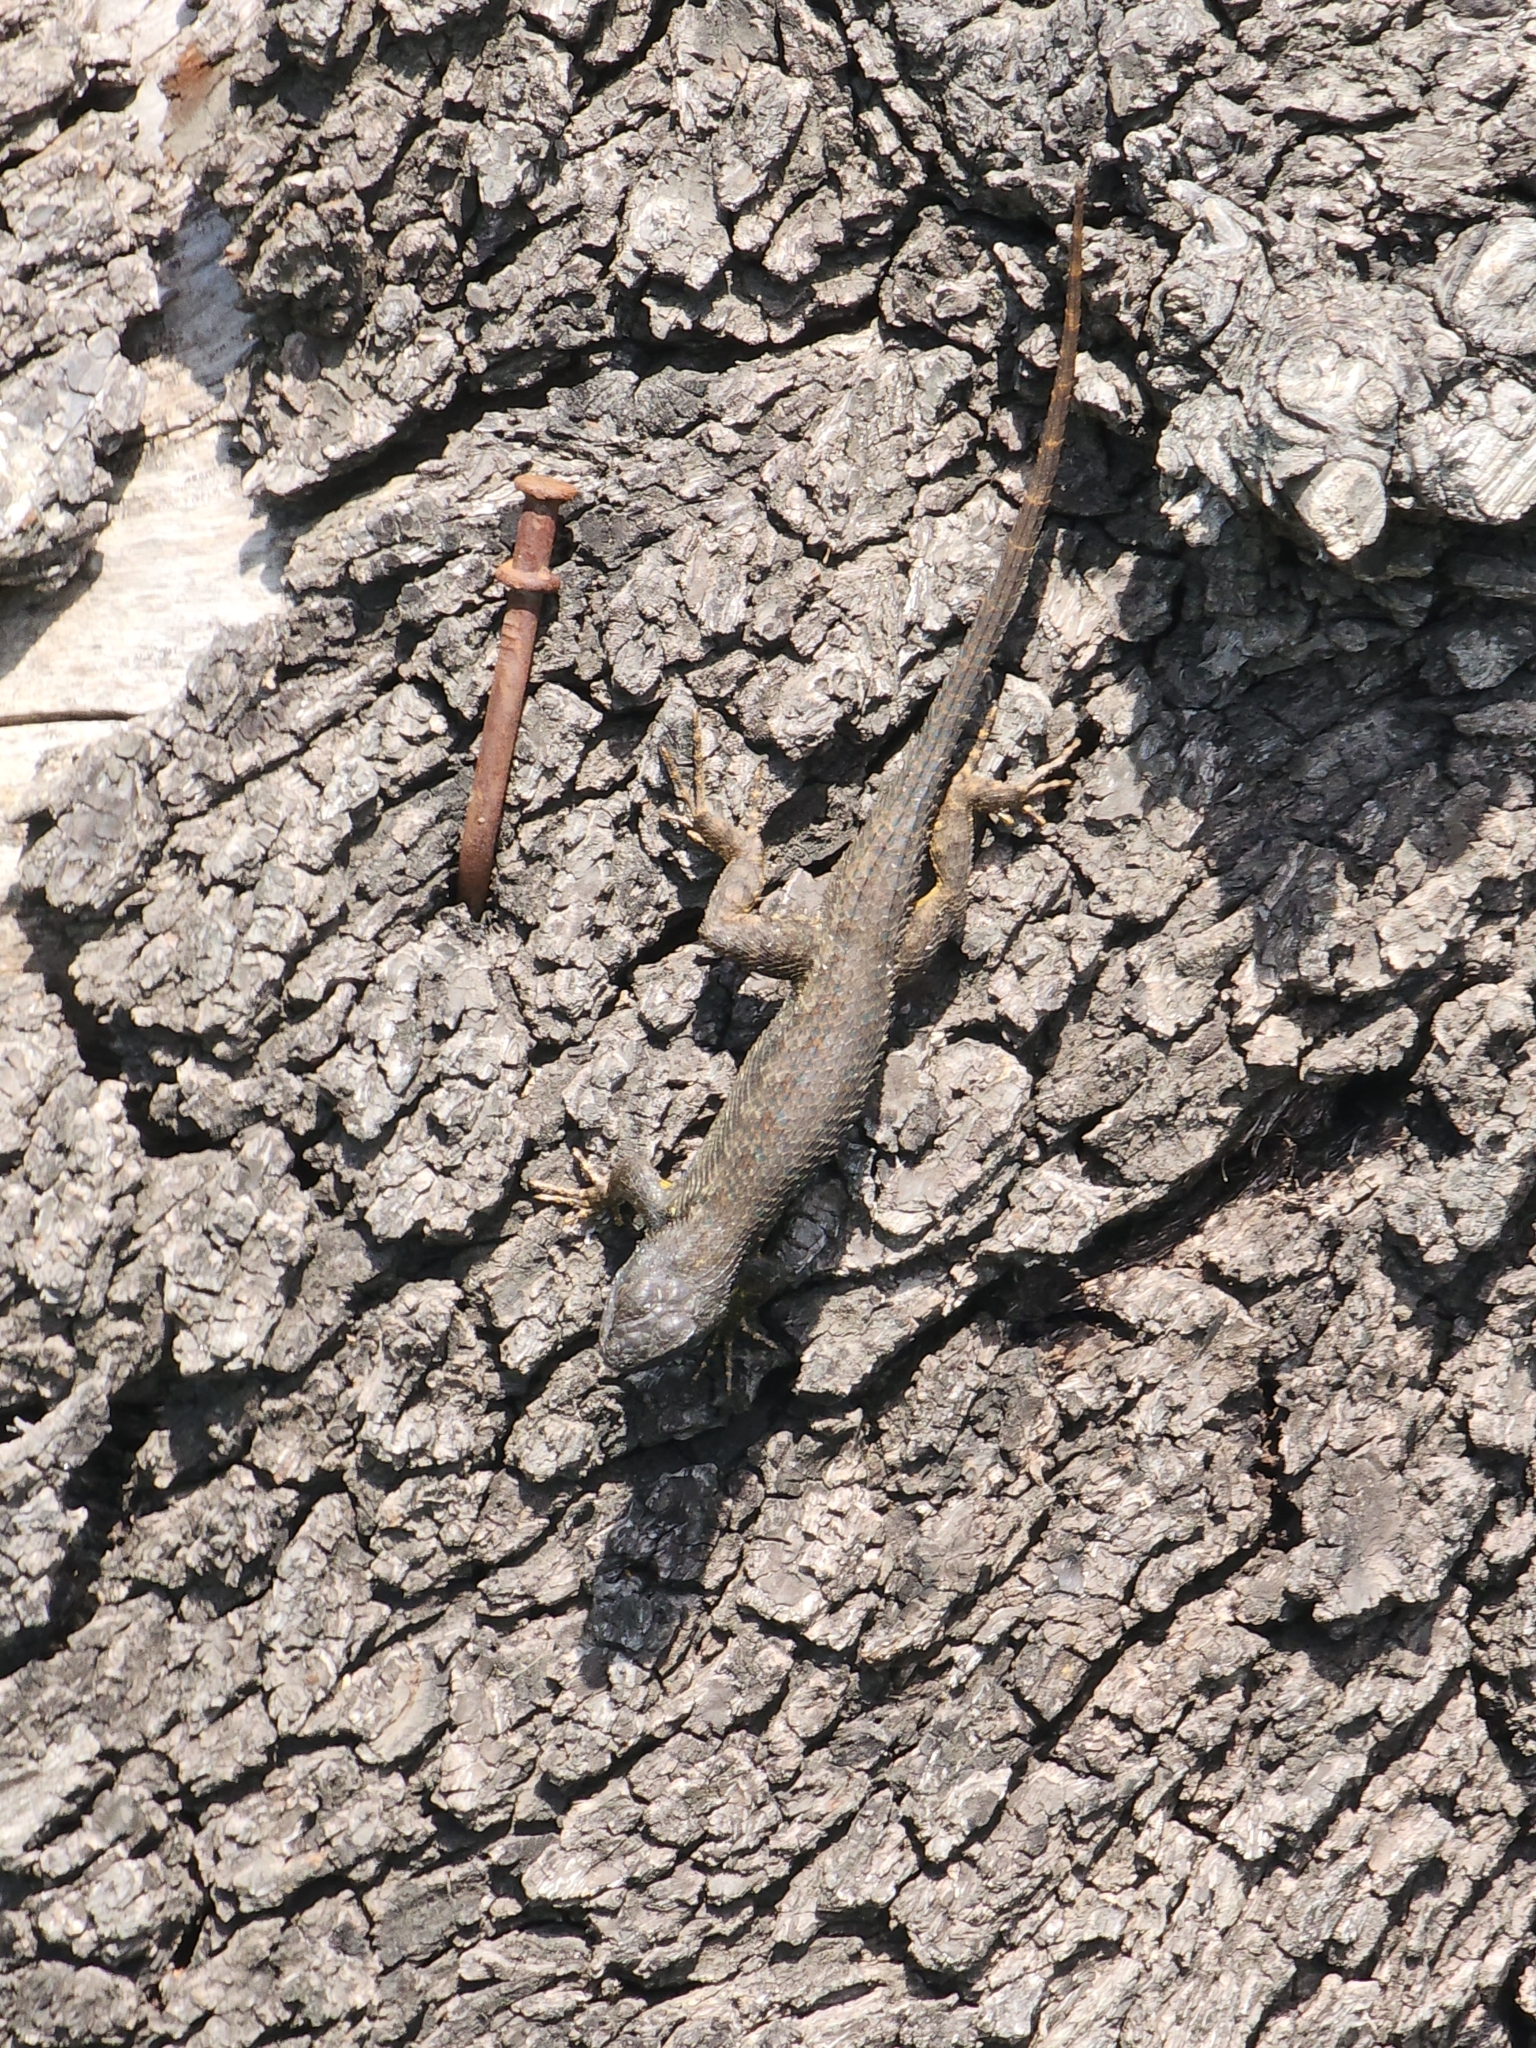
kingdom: Animalia
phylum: Chordata
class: Squamata
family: Phrynosomatidae
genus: Sceloporus
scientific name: Sceloporus occidentalis
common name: Western fence lizard
